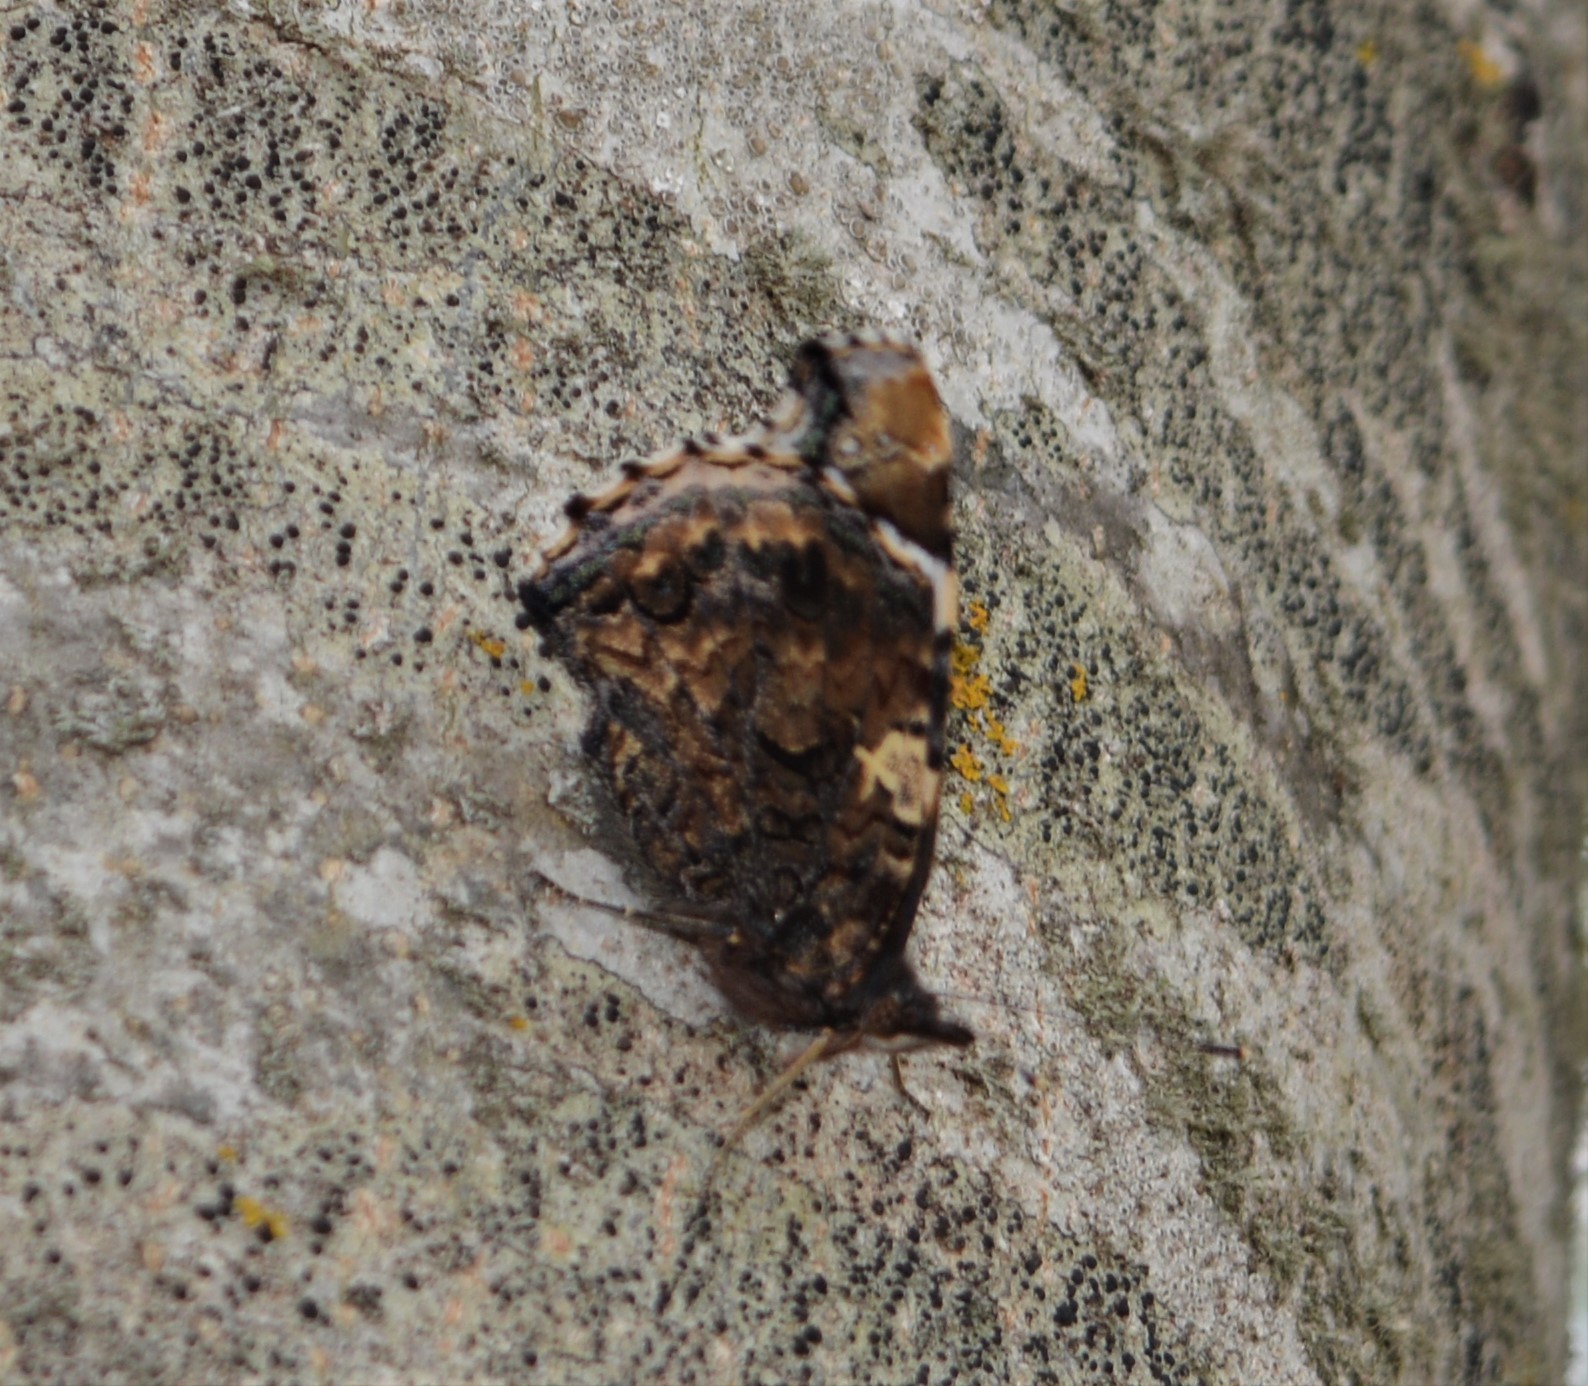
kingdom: Animalia
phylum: Arthropoda
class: Insecta
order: Lepidoptera
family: Nymphalidae
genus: Vanessa
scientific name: Vanessa atalanta
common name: Red admiral
